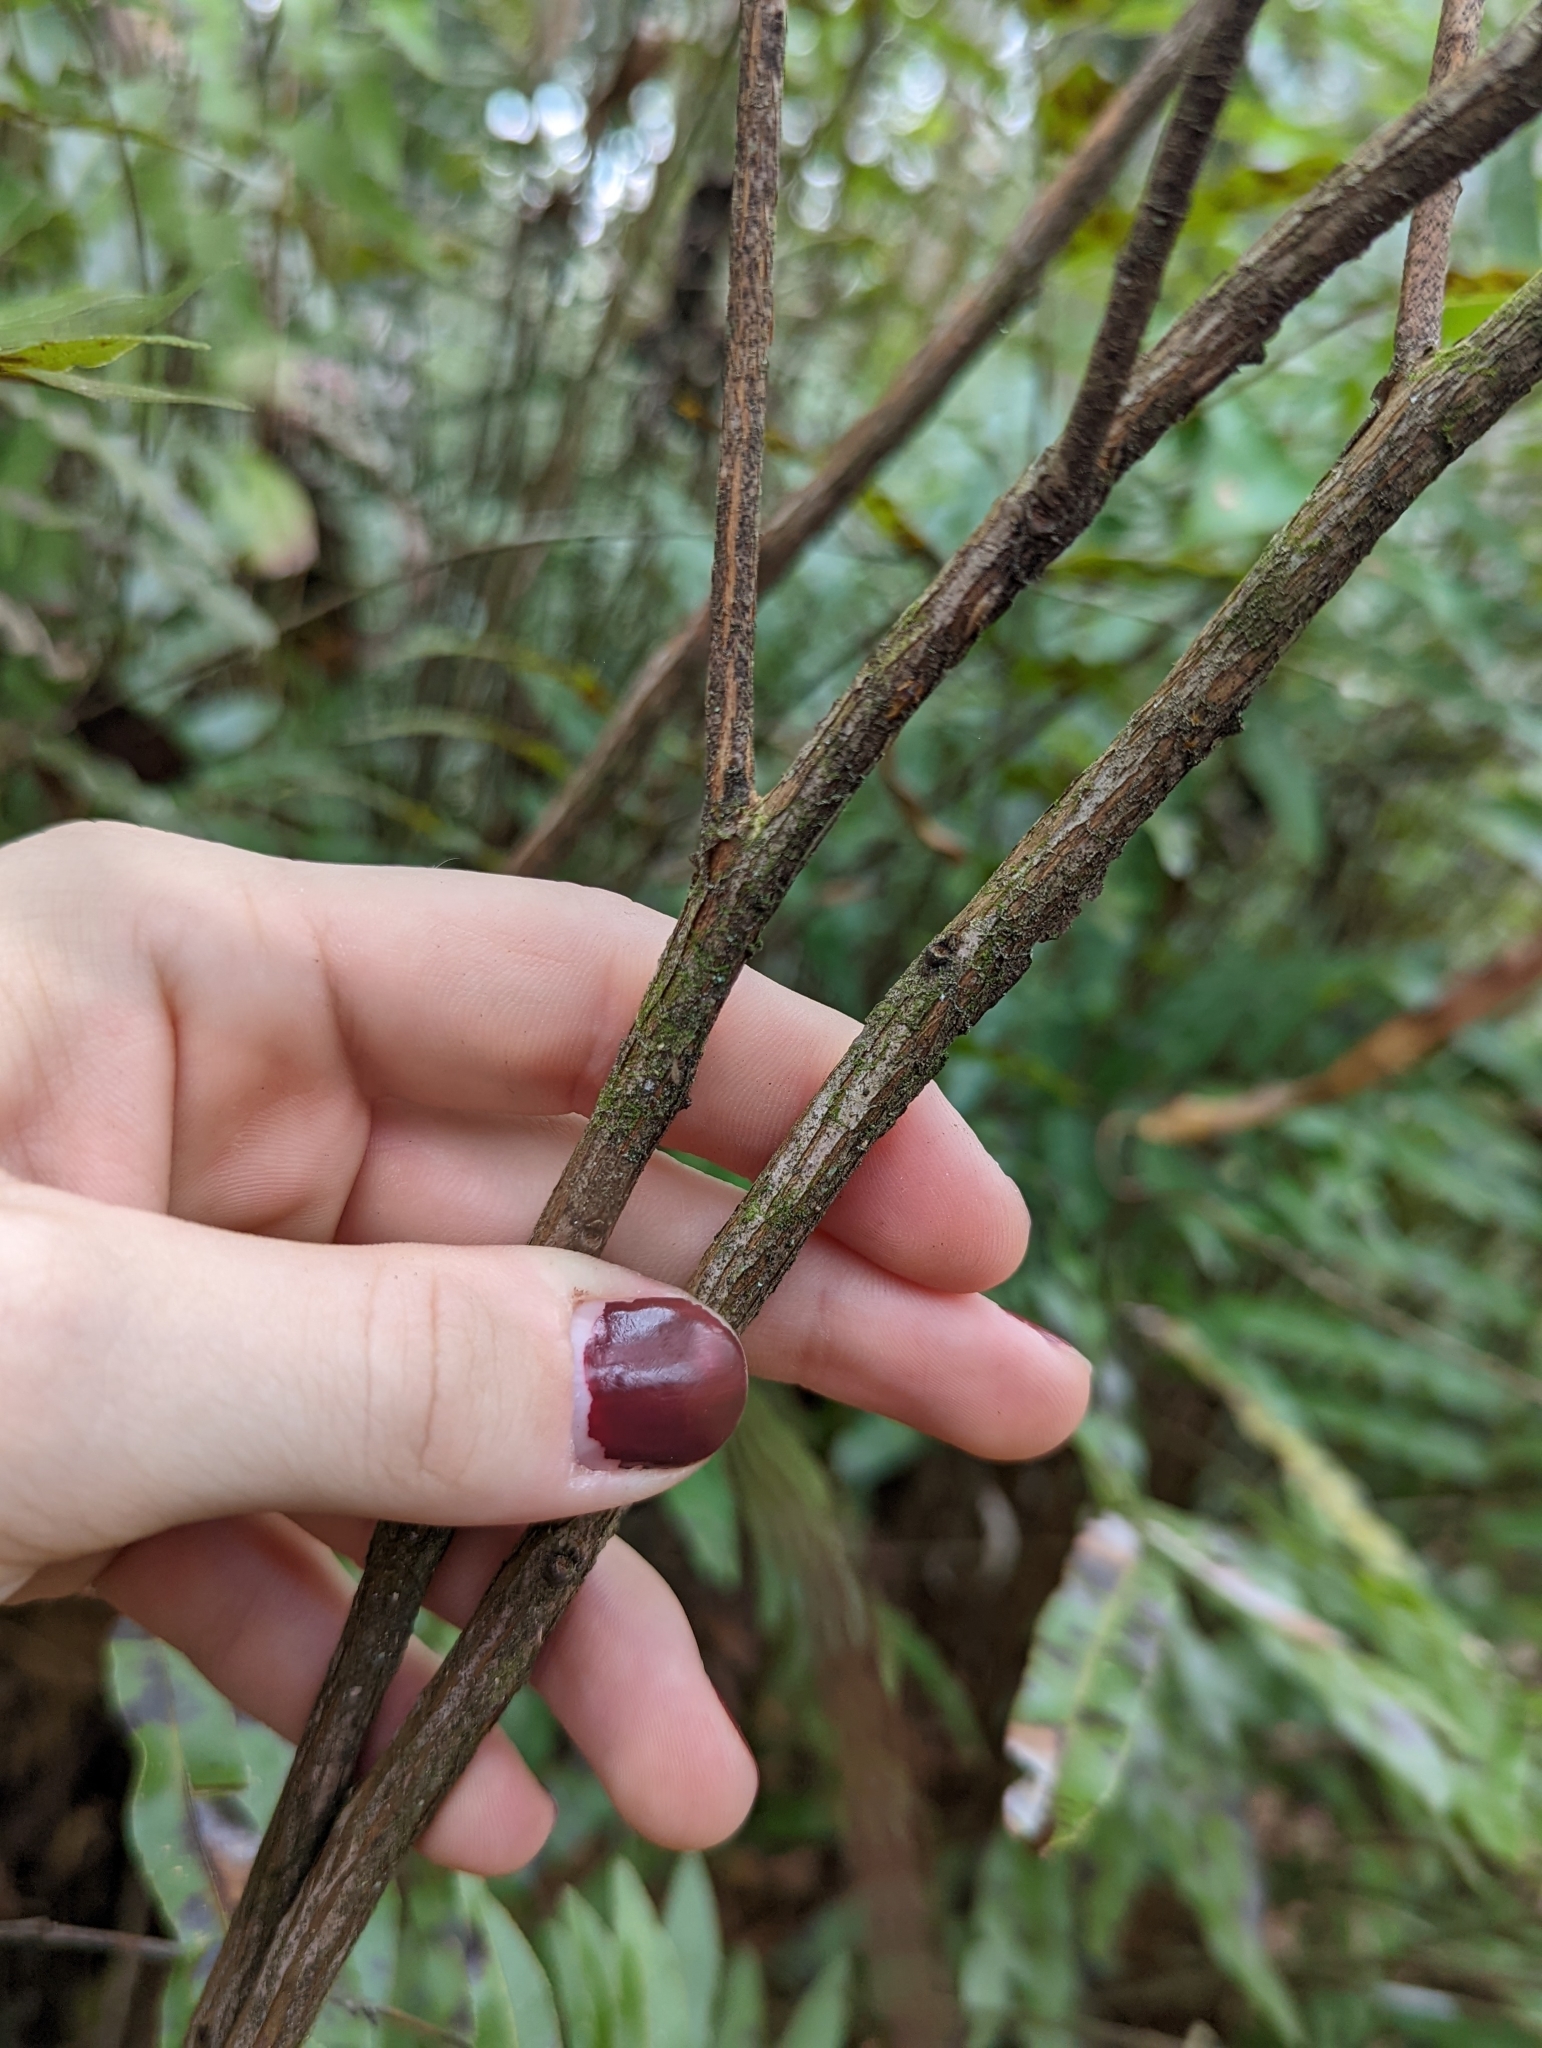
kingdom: Plantae
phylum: Tracheophyta
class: Magnoliopsida
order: Ericales
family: Ericaceae
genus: Lyonia
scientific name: Lyonia lucida
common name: Fetterbush
